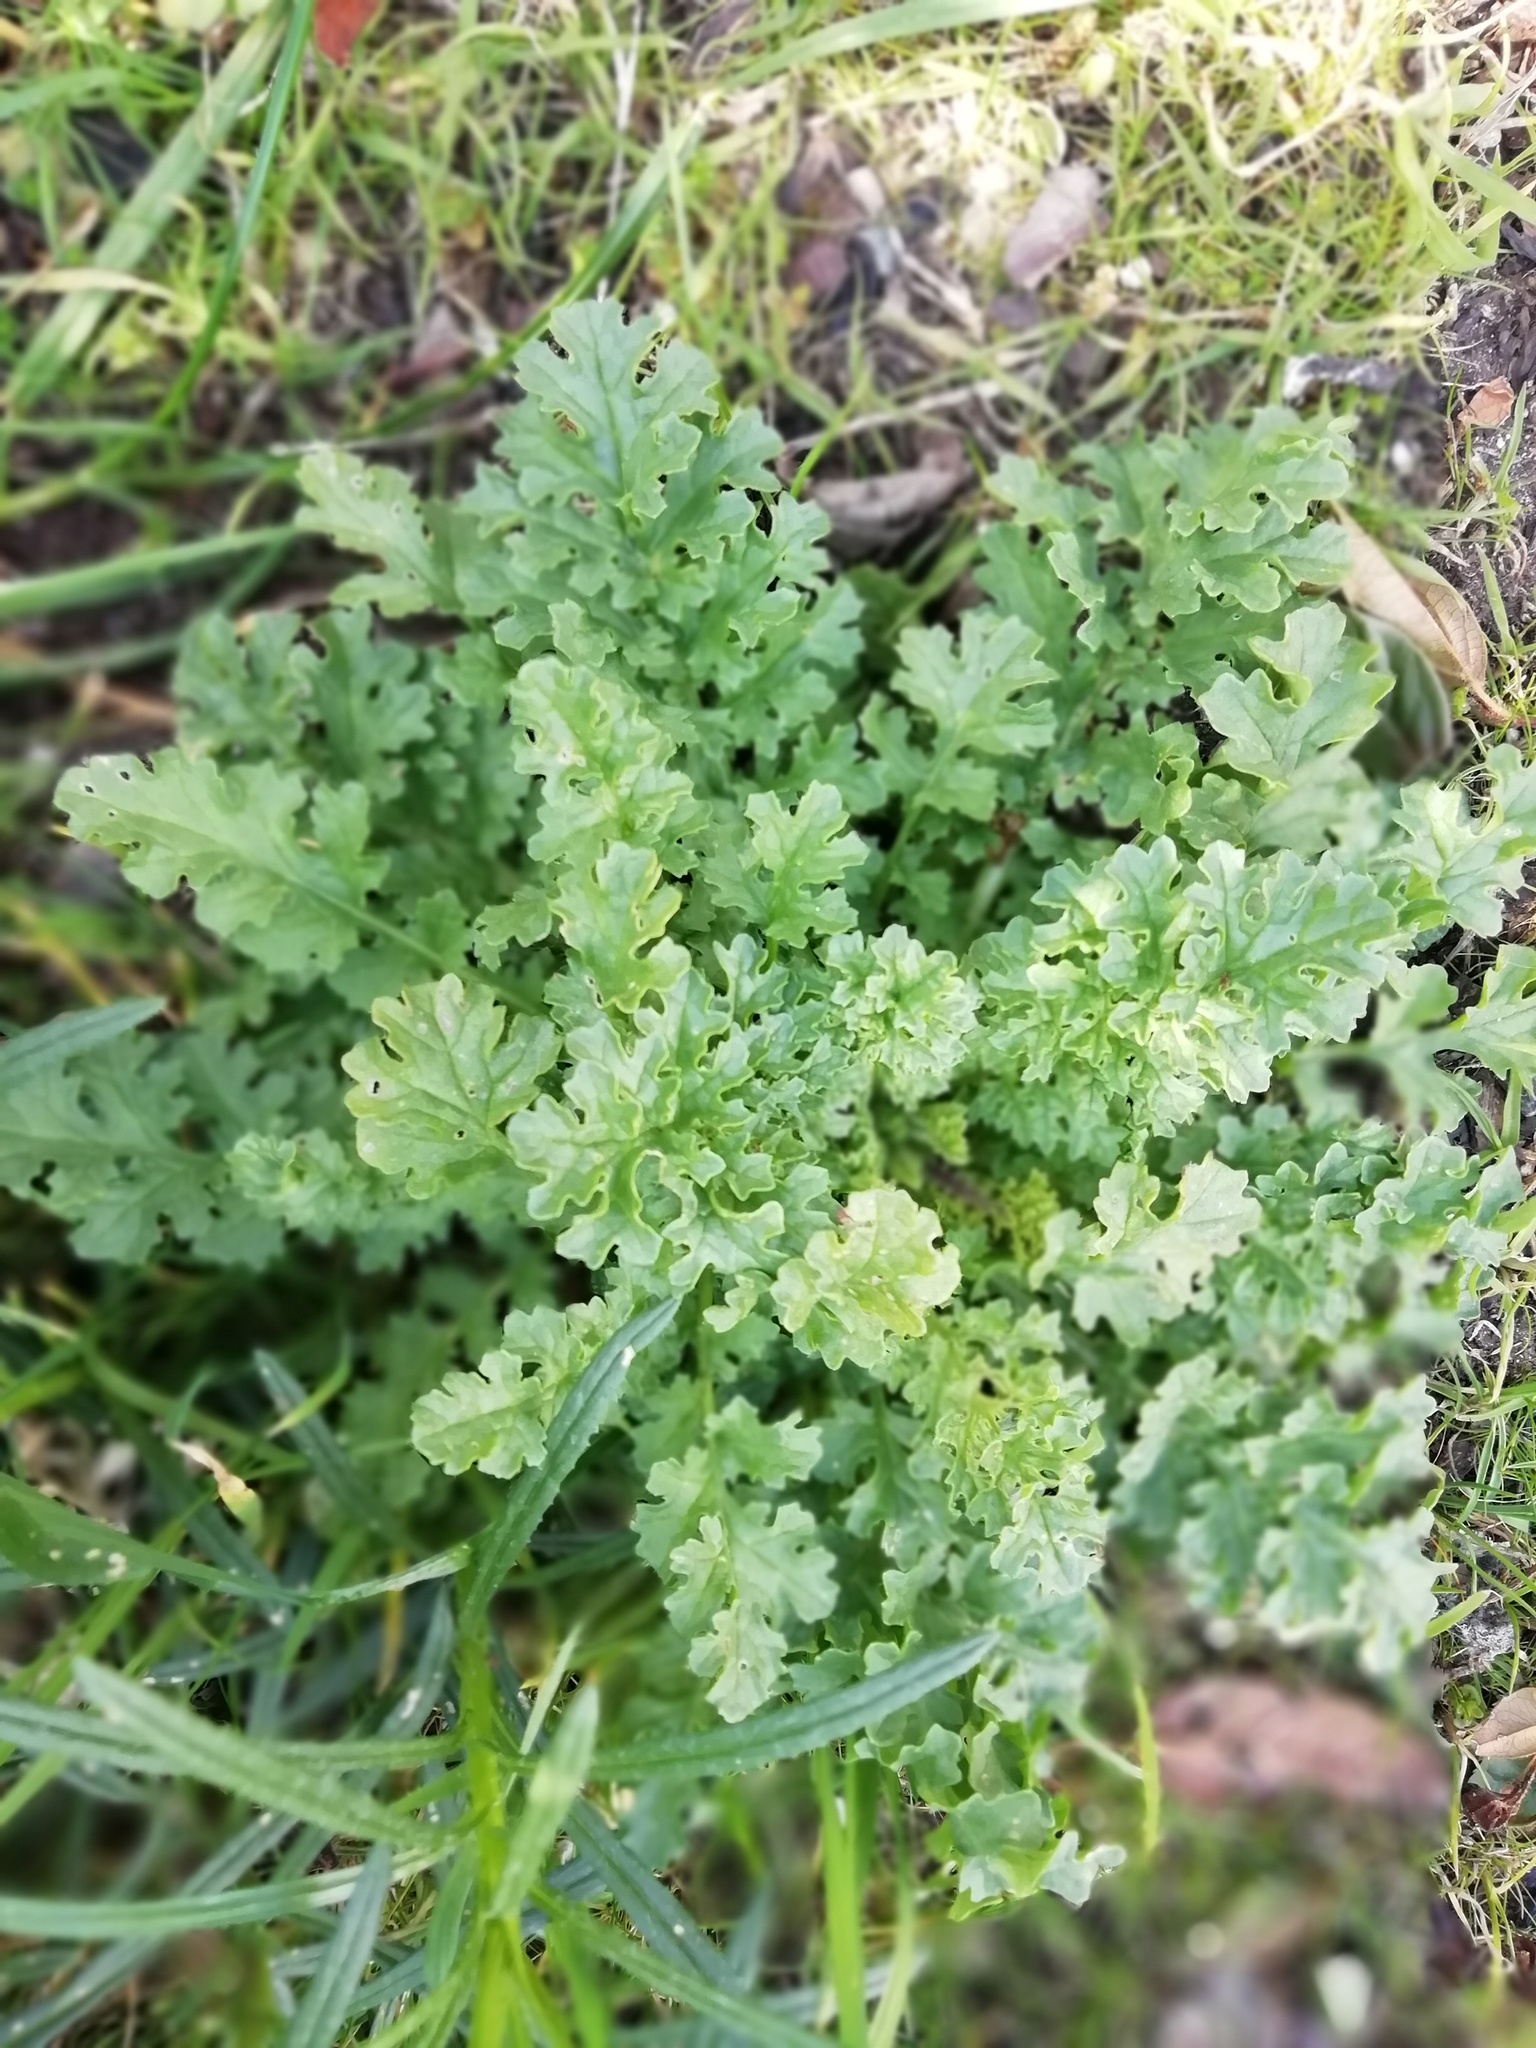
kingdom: Plantae
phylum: Tracheophyta
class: Magnoliopsida
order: Asterales
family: Asteraceae
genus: Jacobaea
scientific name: Jacobaea vulgaris
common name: Stinking willie
